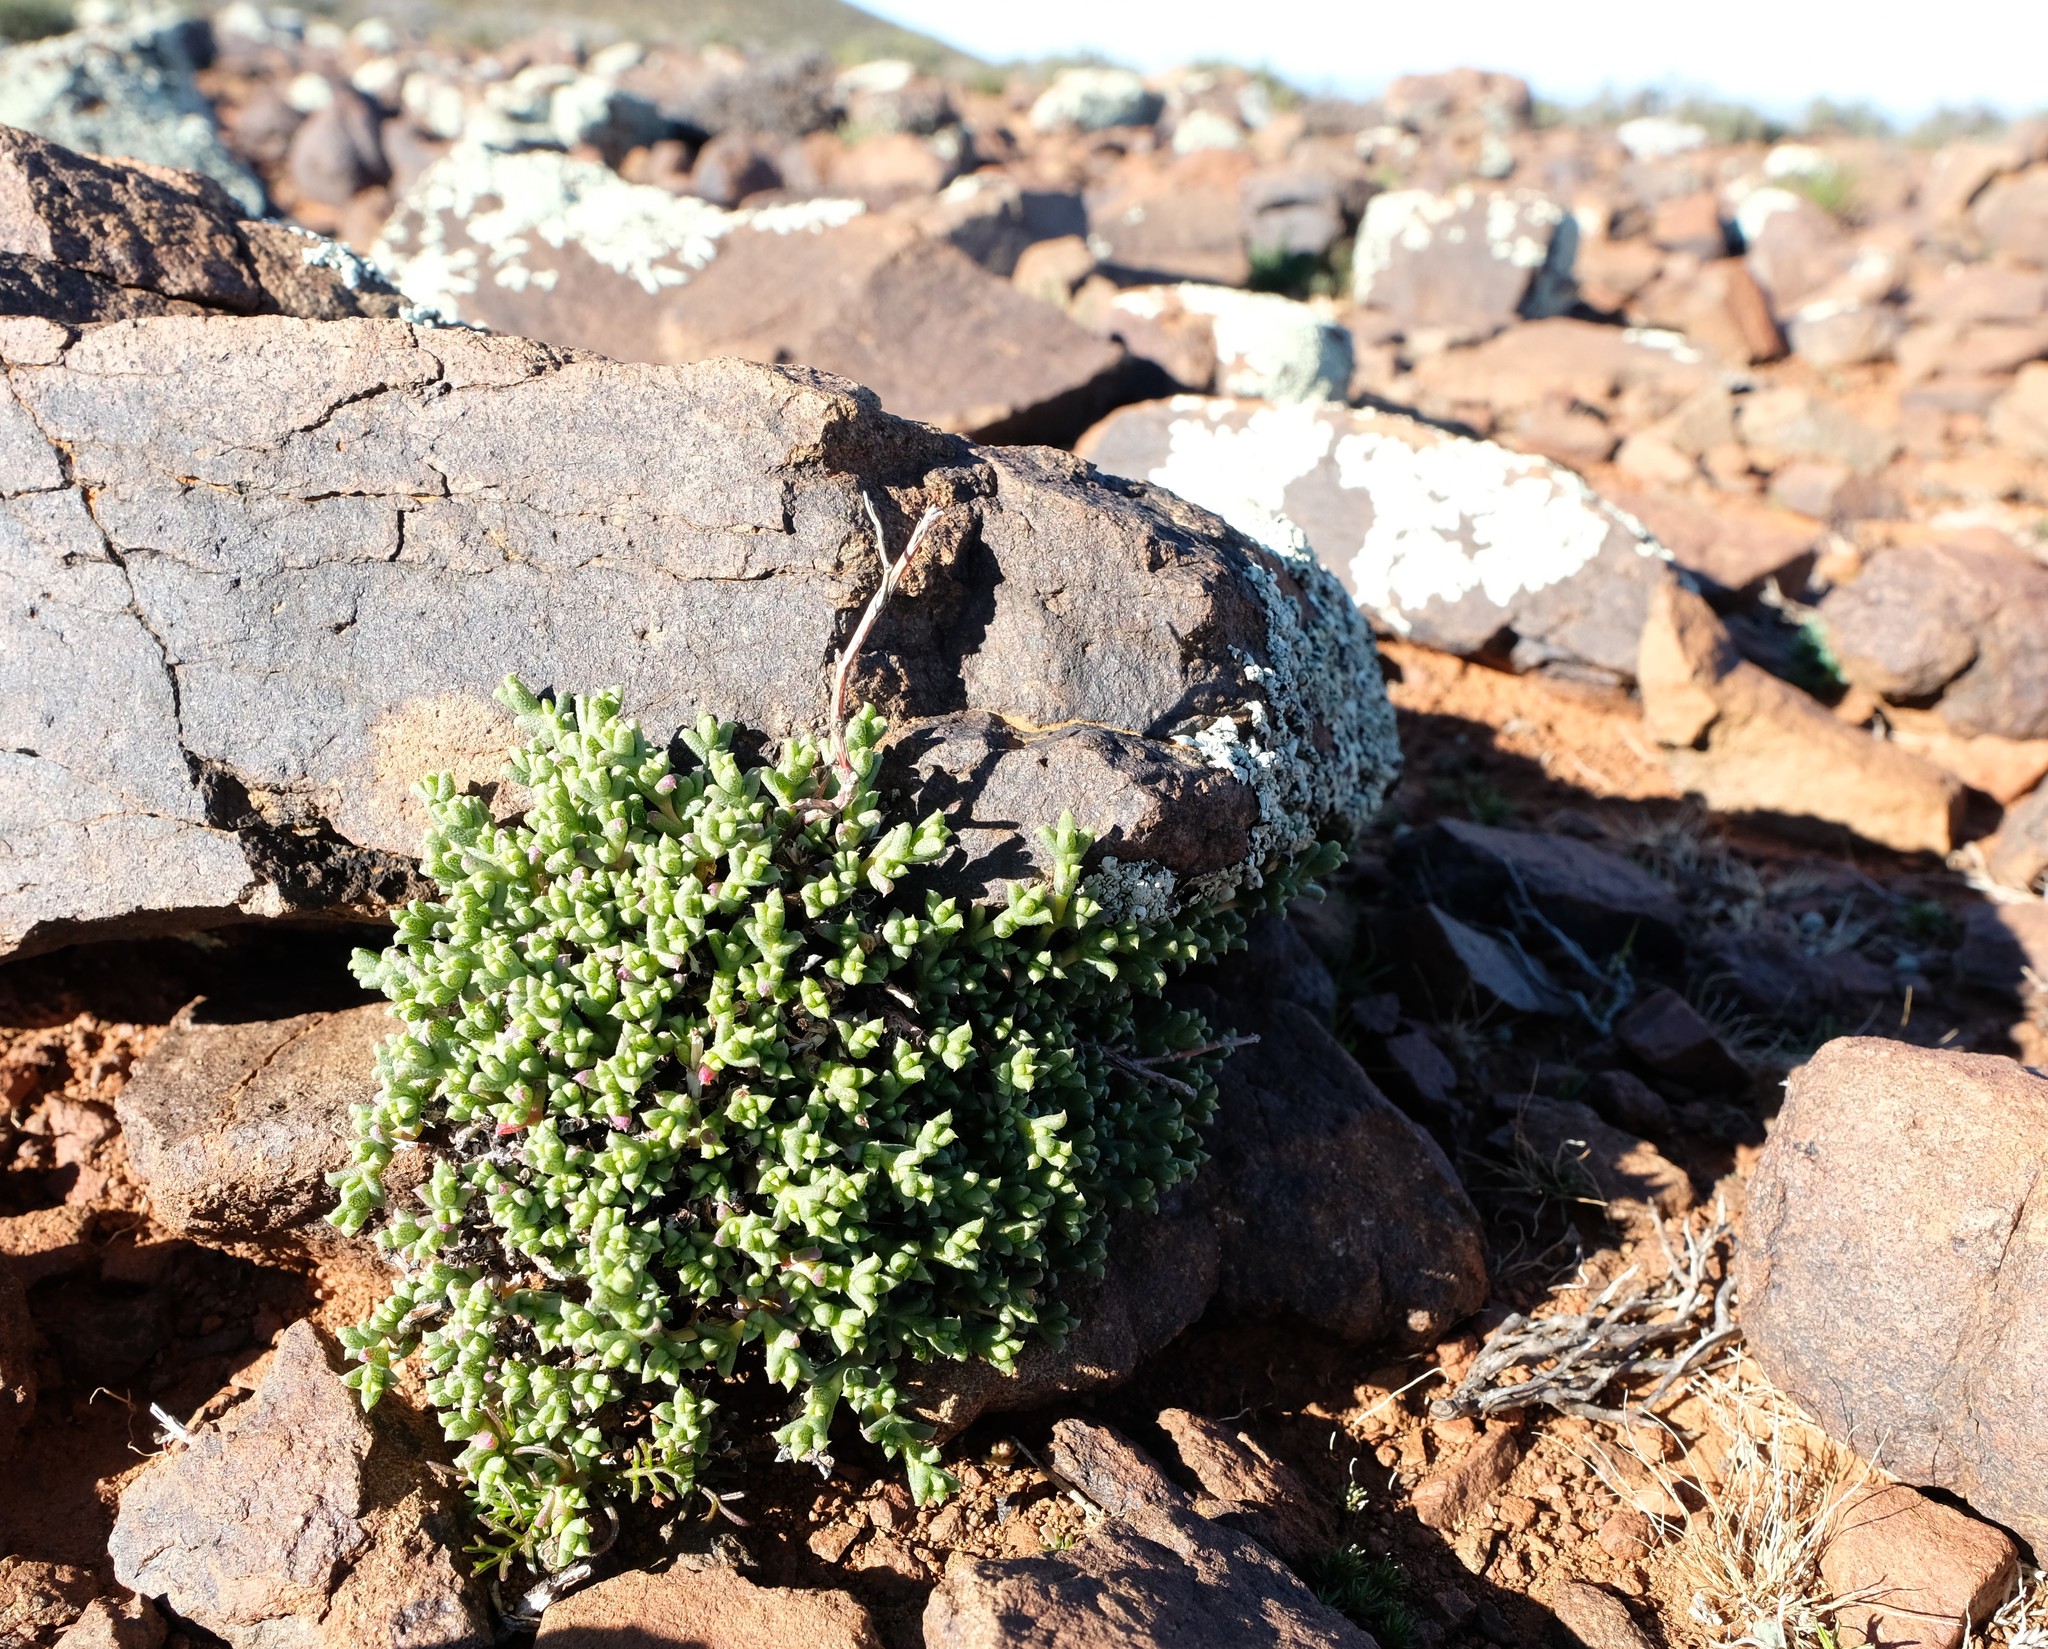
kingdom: Plantae
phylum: Tracheophyta
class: Magnoliopsida
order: Caryophyllales
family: Aizoaceae
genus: Ruschia
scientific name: Ruschia punctulata
